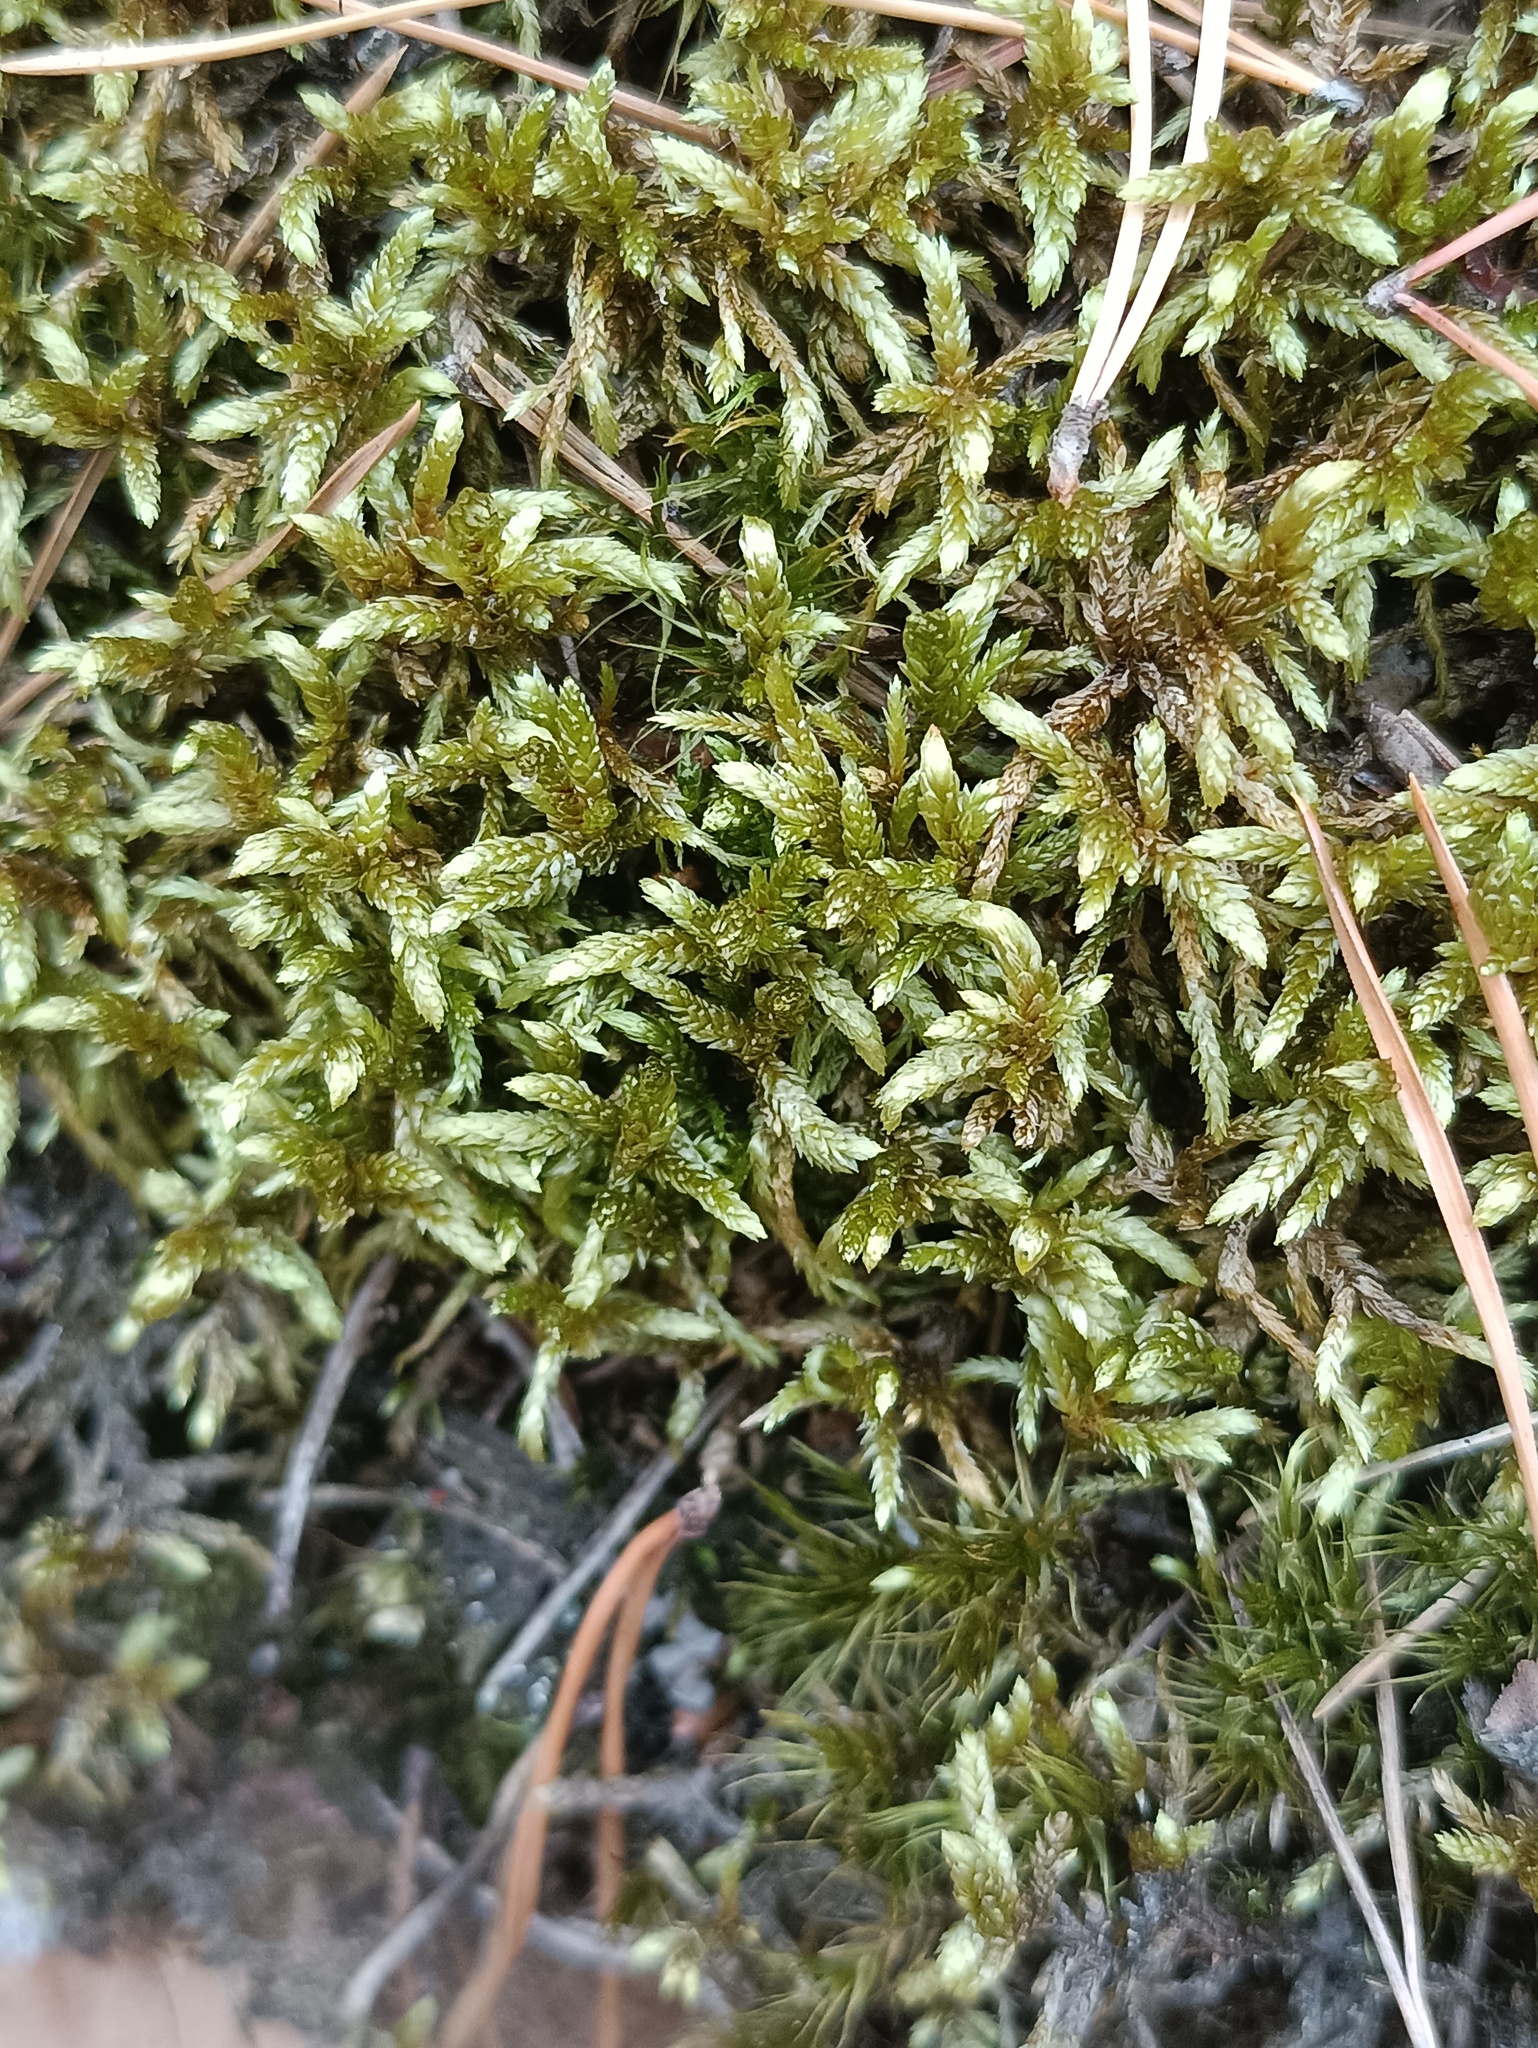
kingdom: Plantae
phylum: Bryophyta
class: Bryopsida
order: Hypnales
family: Hylocomiaceae
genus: Pleurozium
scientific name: Pleurozium schreberi
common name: Red-stemmed feather moss
